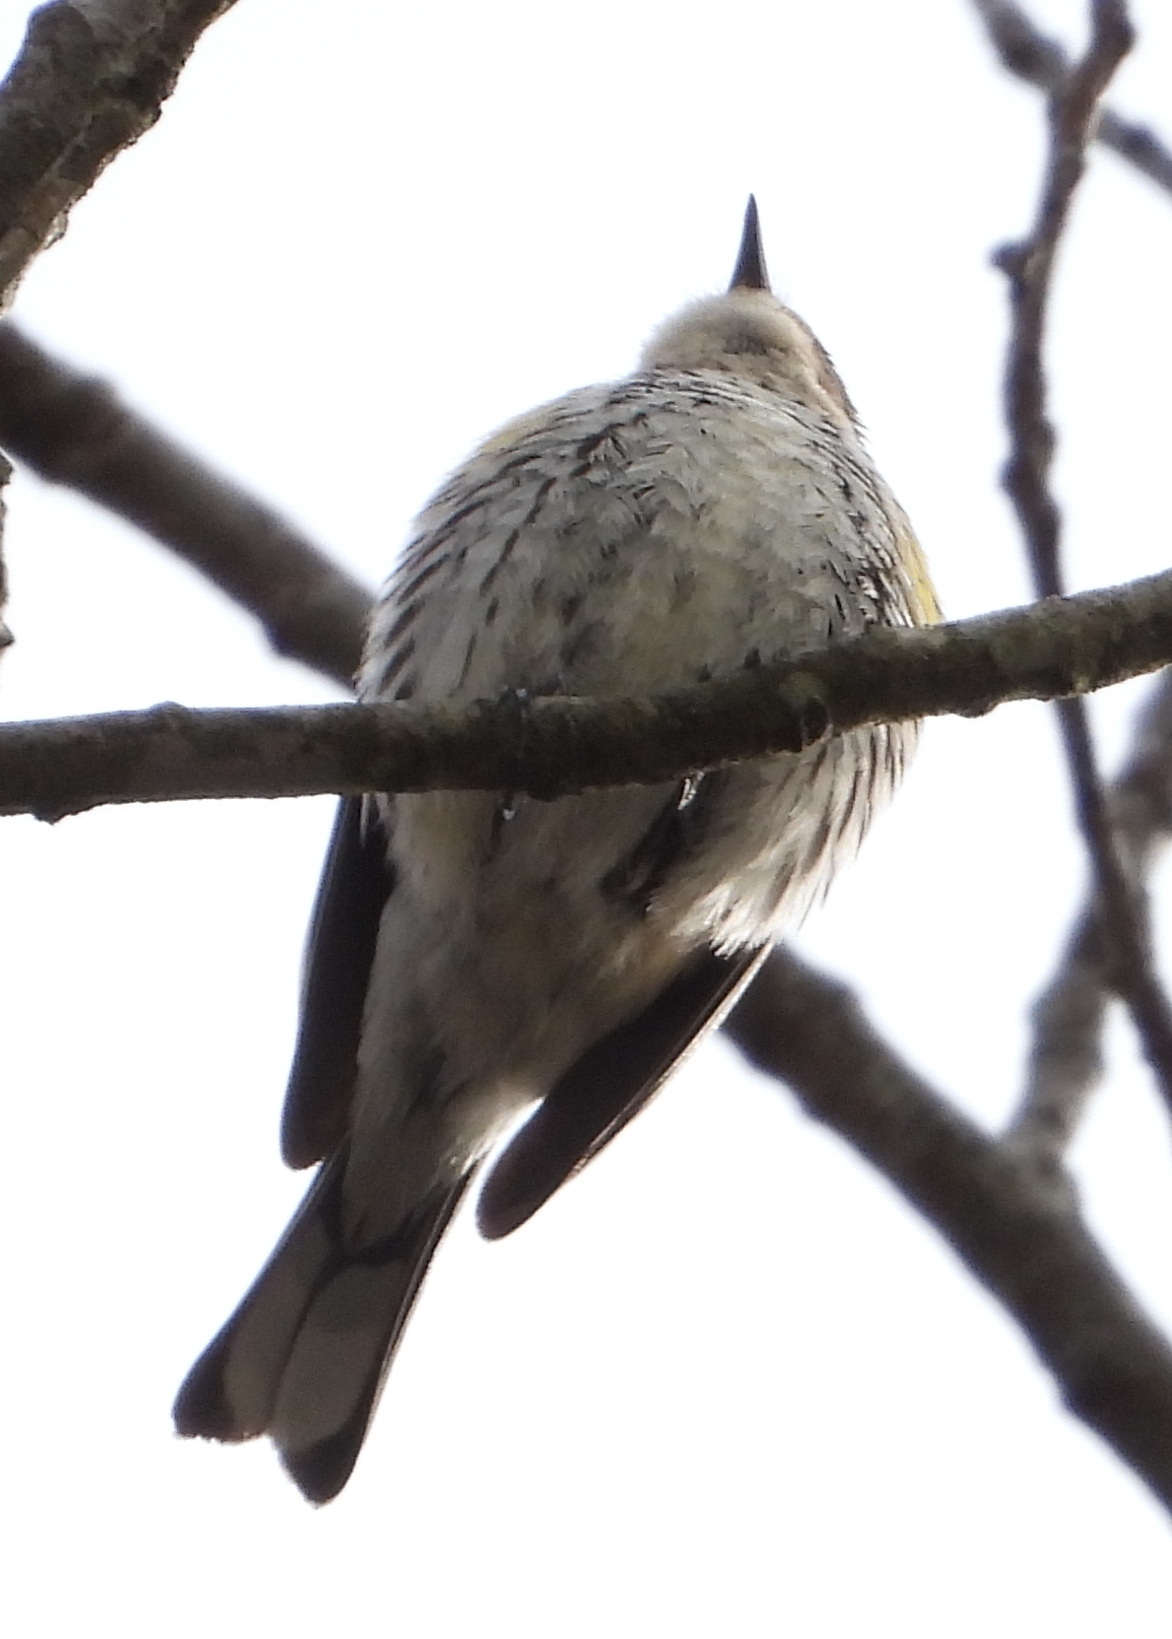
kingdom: Animalia
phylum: Chordata
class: Aves
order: Passeriformes
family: Parulidae
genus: Setophaga
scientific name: Setophaga coronata
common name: Myrtle warbler
